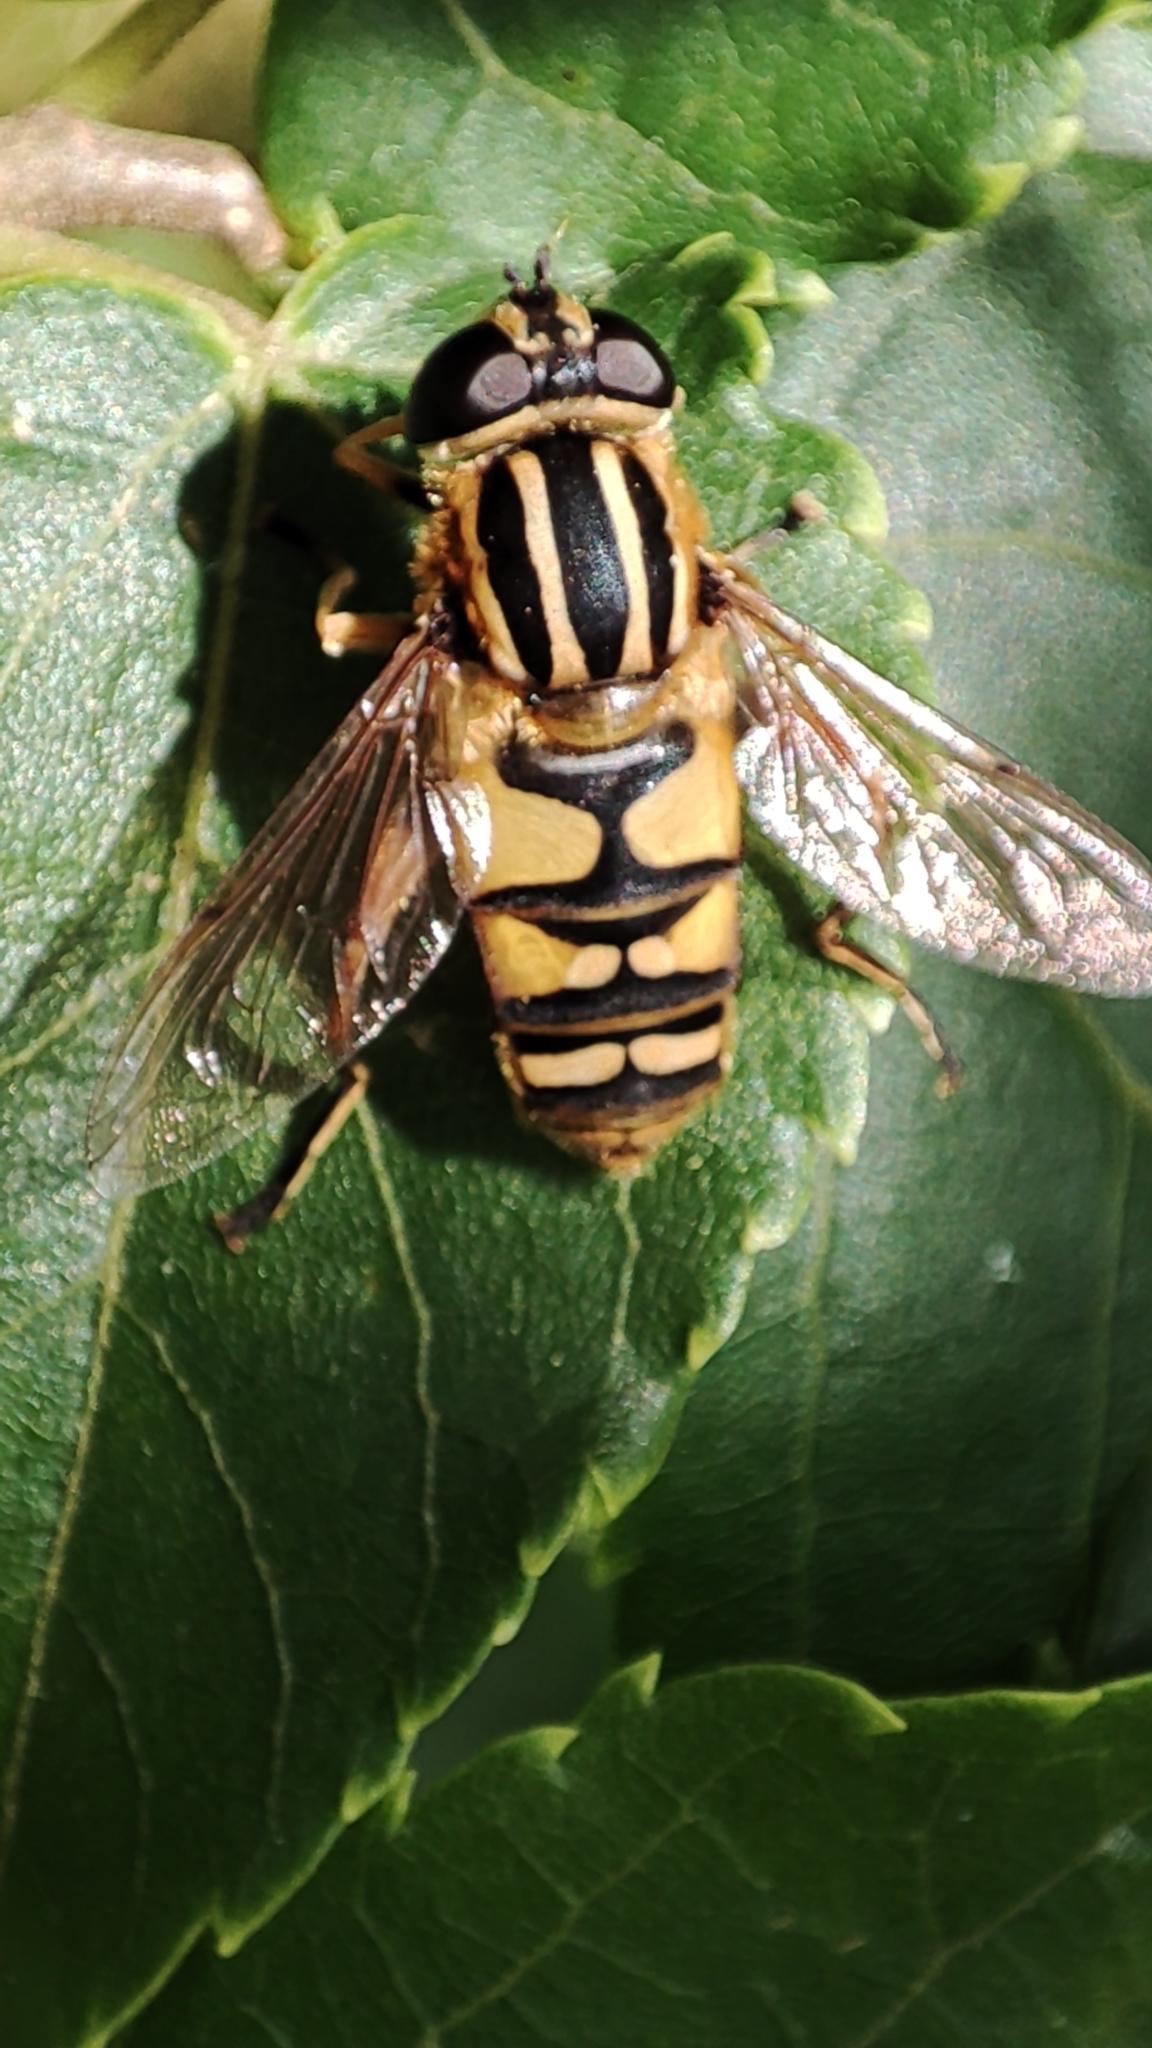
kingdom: Animalia
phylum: Arthropoda
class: Insecta
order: Diptera
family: Syrphidae
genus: Helophilus
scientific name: Helophilus pendulus
